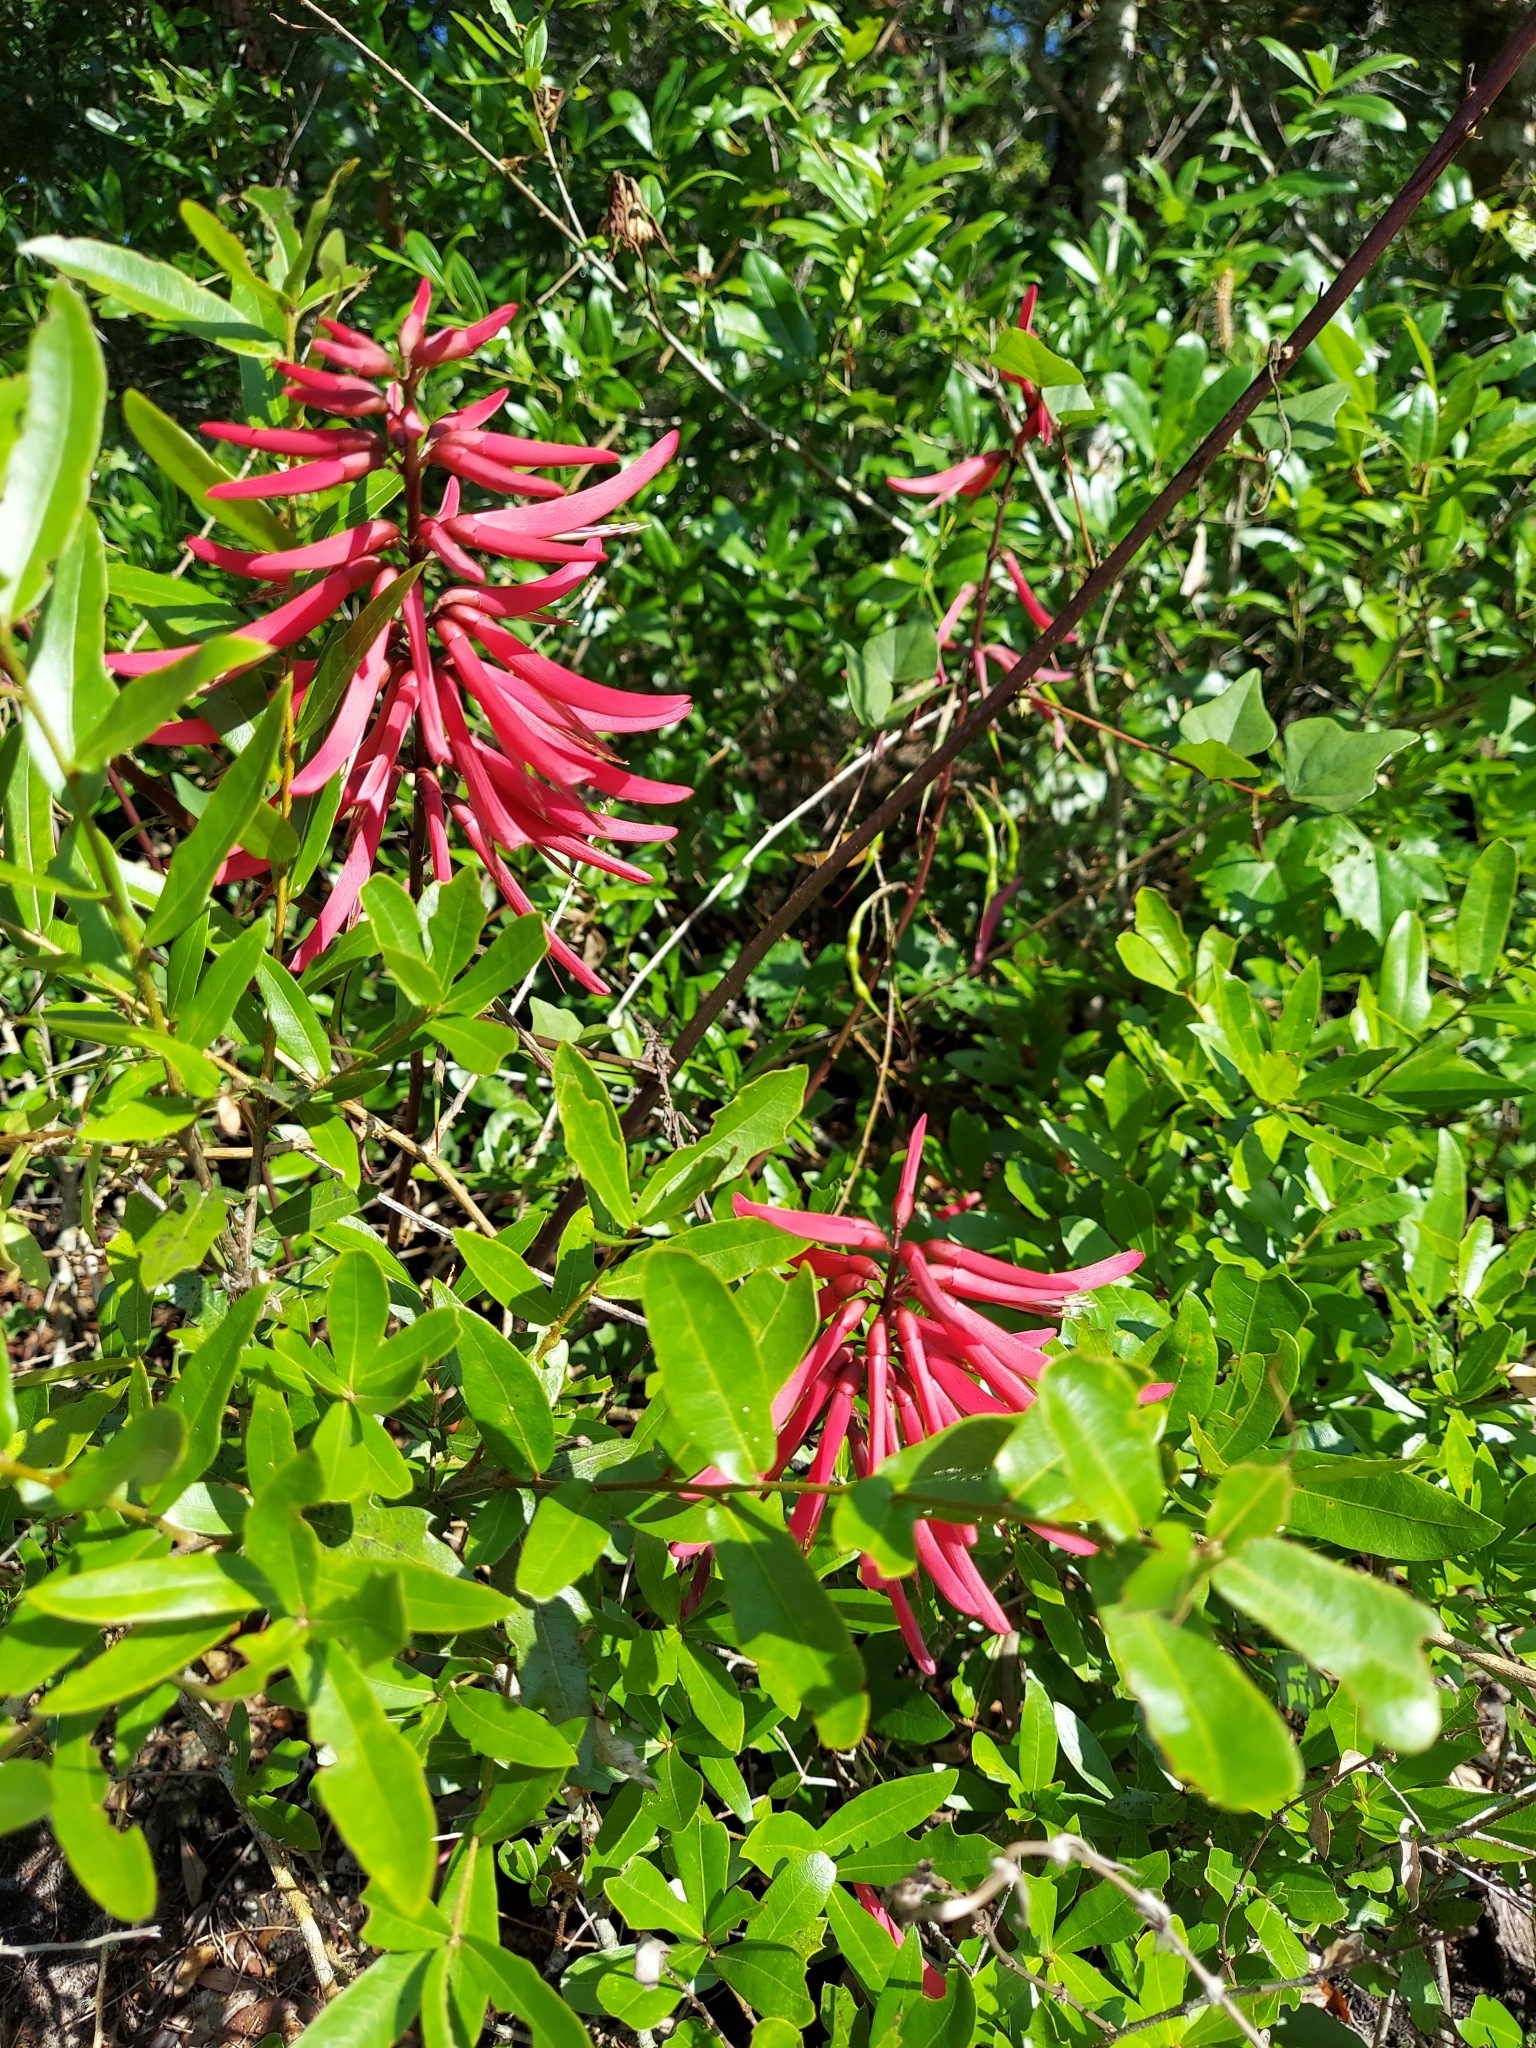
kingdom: Plantae
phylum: Tracheophyta
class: Magnoliopsida
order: Fabales
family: Fabaceae
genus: Erythrina
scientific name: Erythrina herbacea
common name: Coral-bean
